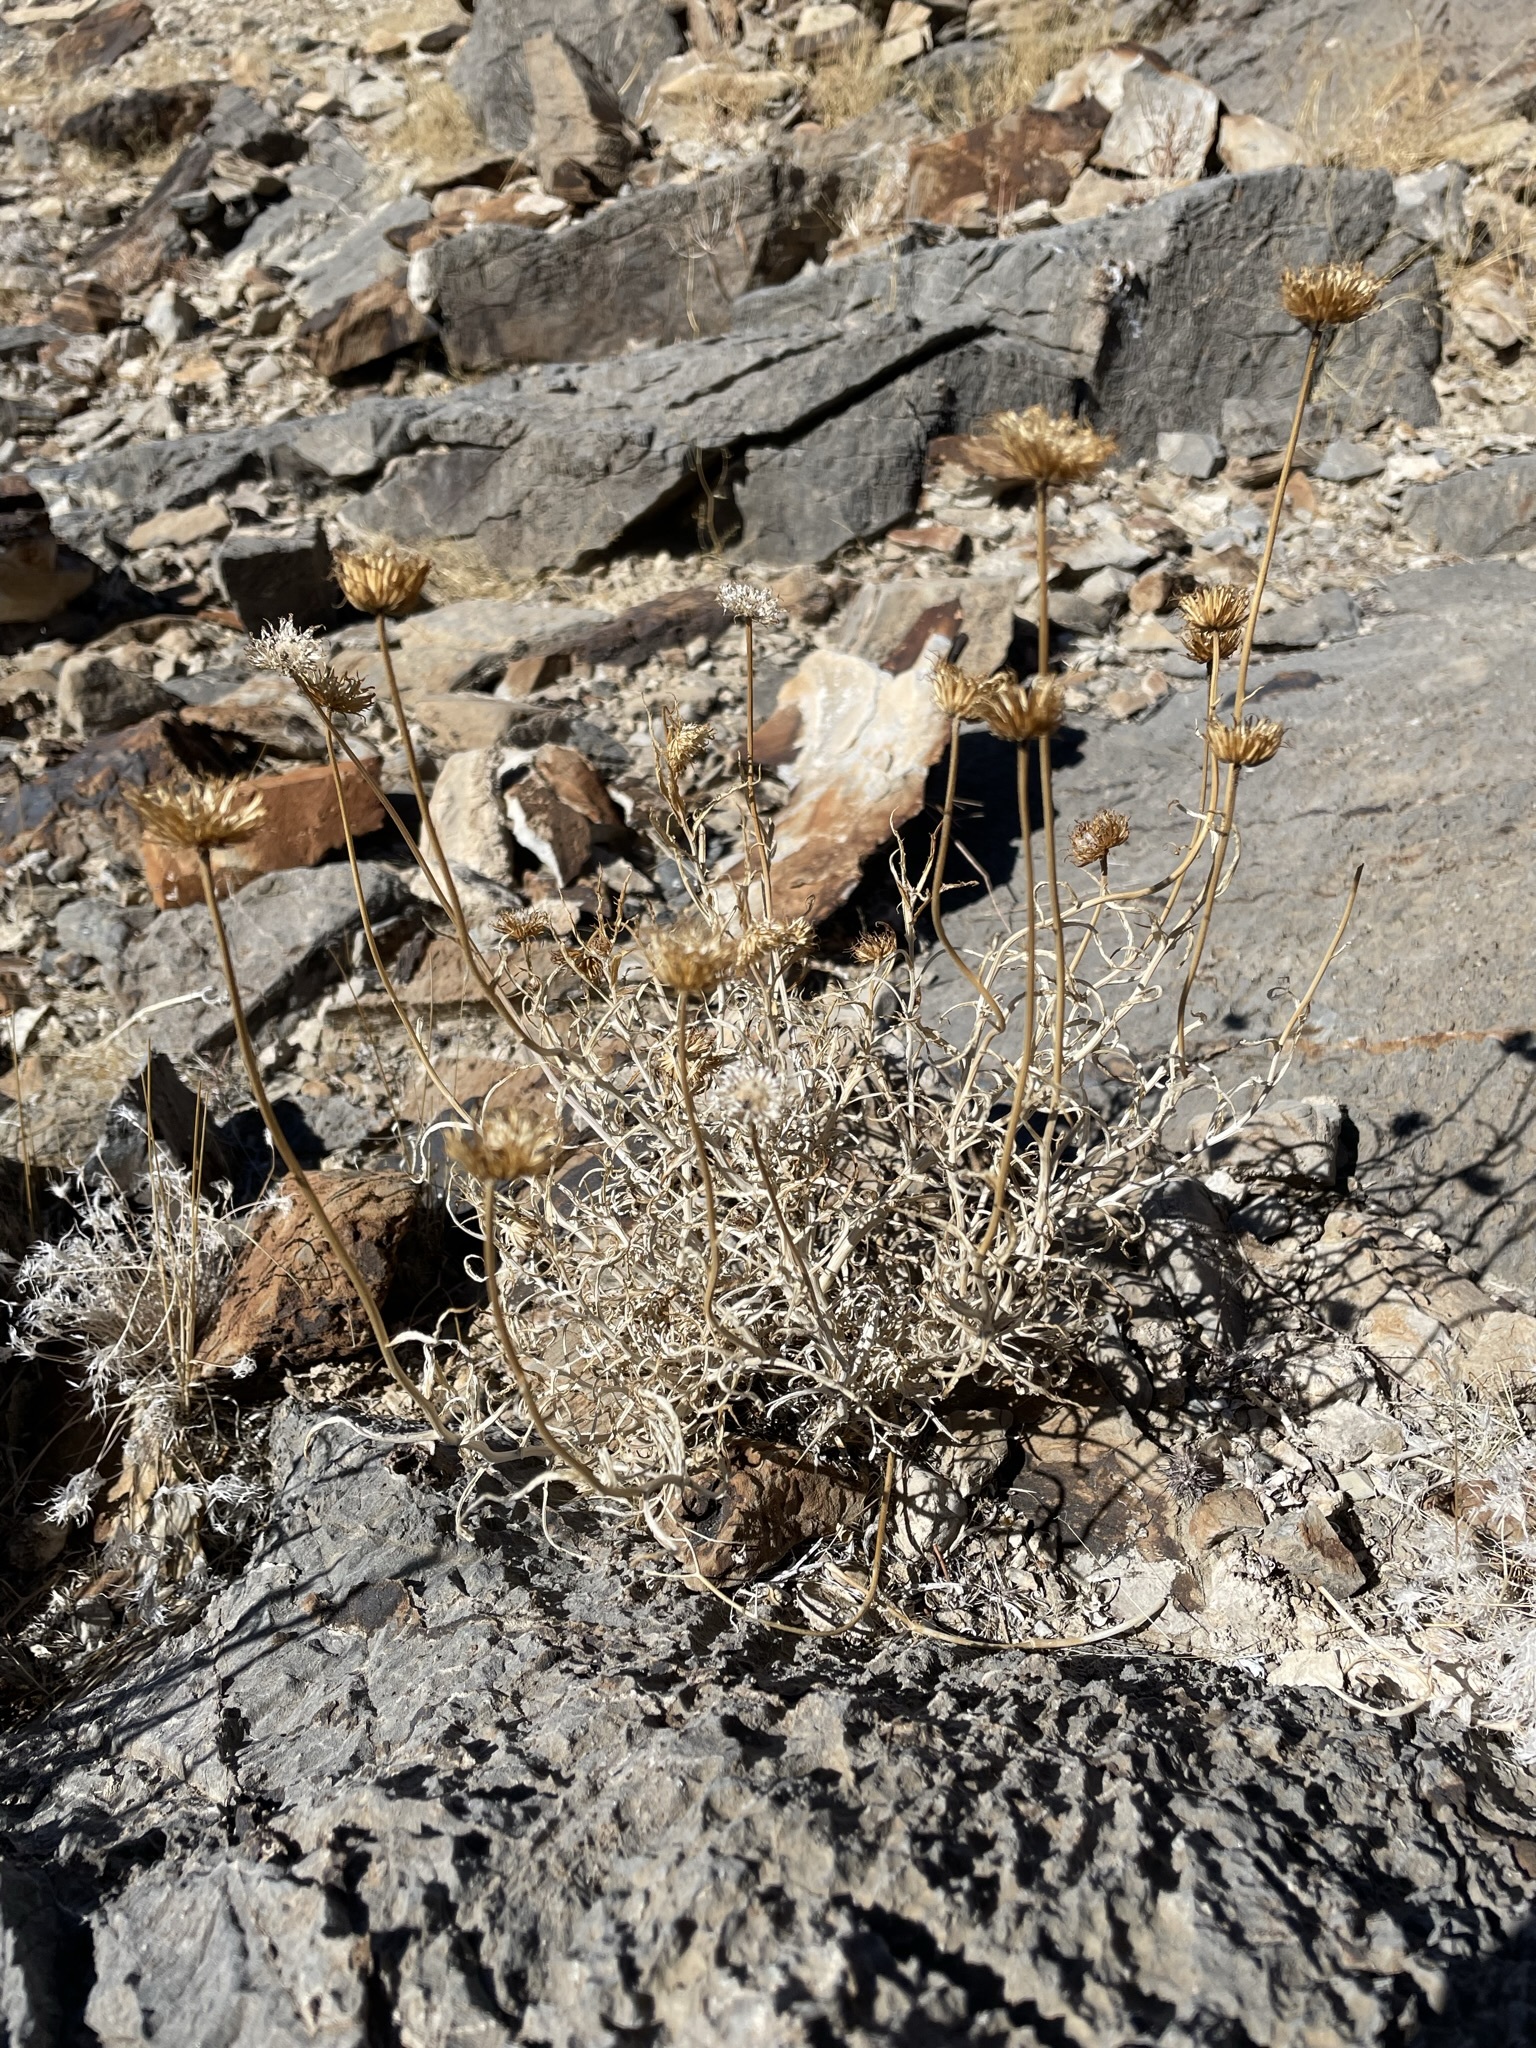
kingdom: Plantae
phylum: Tracheophyta
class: Magnoliopsida
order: Asterales
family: Asteraceae
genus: Xylorhiza
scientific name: Xylorhiza tortifolia
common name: Hurt-leaf woody-aster
